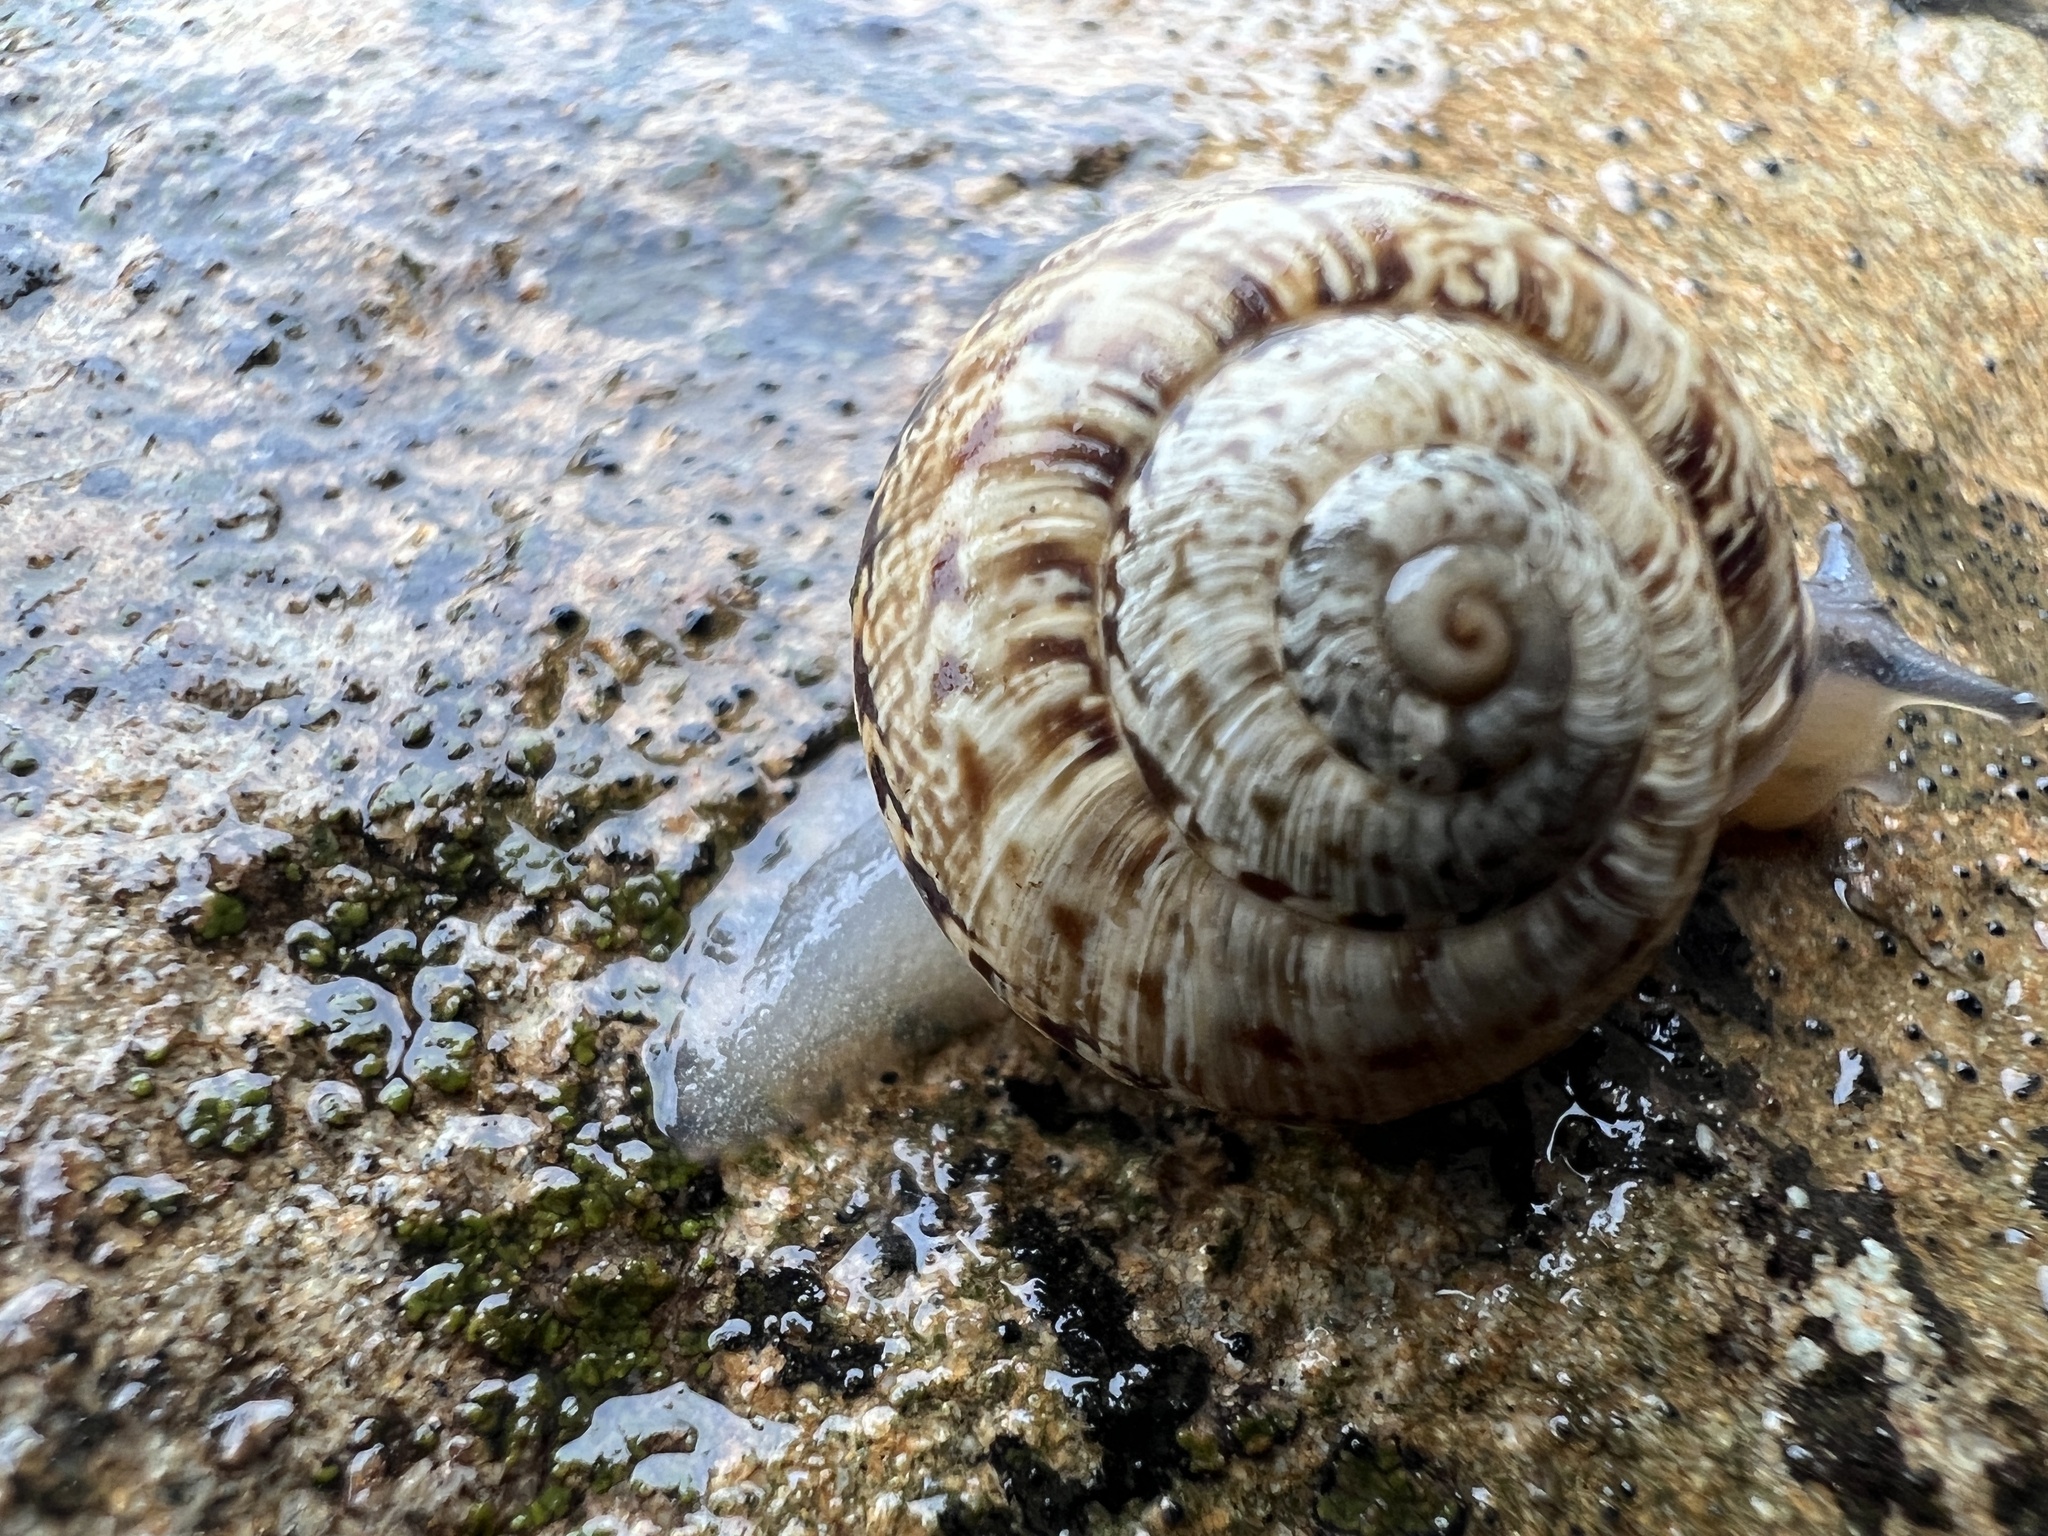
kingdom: Animalia
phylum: Mollusca
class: Gastropoda
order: Stylommatophora
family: Helicidae
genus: Marmorana
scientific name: Marmorana serpentina
